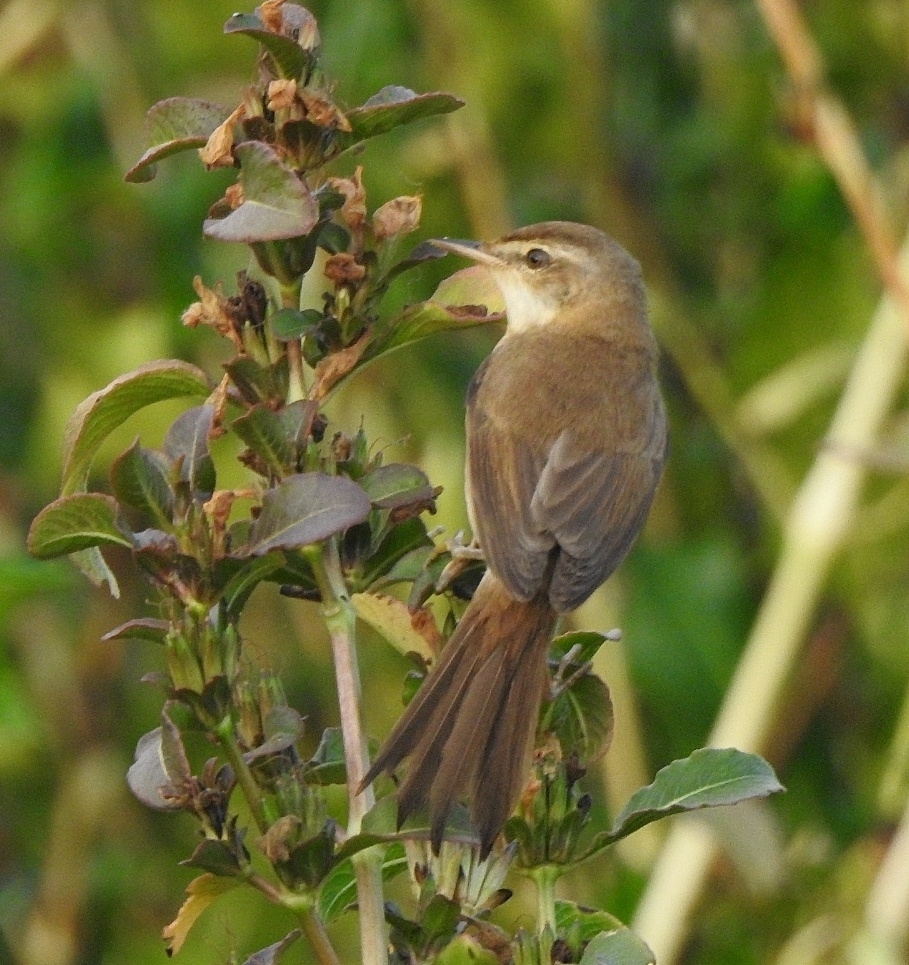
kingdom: Animalia
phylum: Chordata
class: Aves
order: Passeriformes
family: Acrocephalidae
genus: Acrocephalus
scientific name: Acrocephalus agricola
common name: Paddyfield warbler
